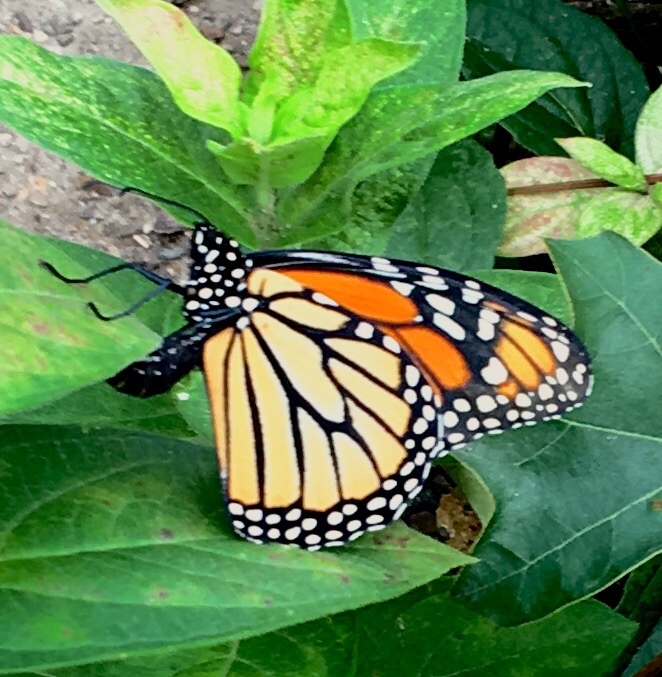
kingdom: Animalia
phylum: Arthropoda
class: Insecta
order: Lepidoptera
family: Nymphalidae
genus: Danaus
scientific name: Danaus plexippus
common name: Monarch
